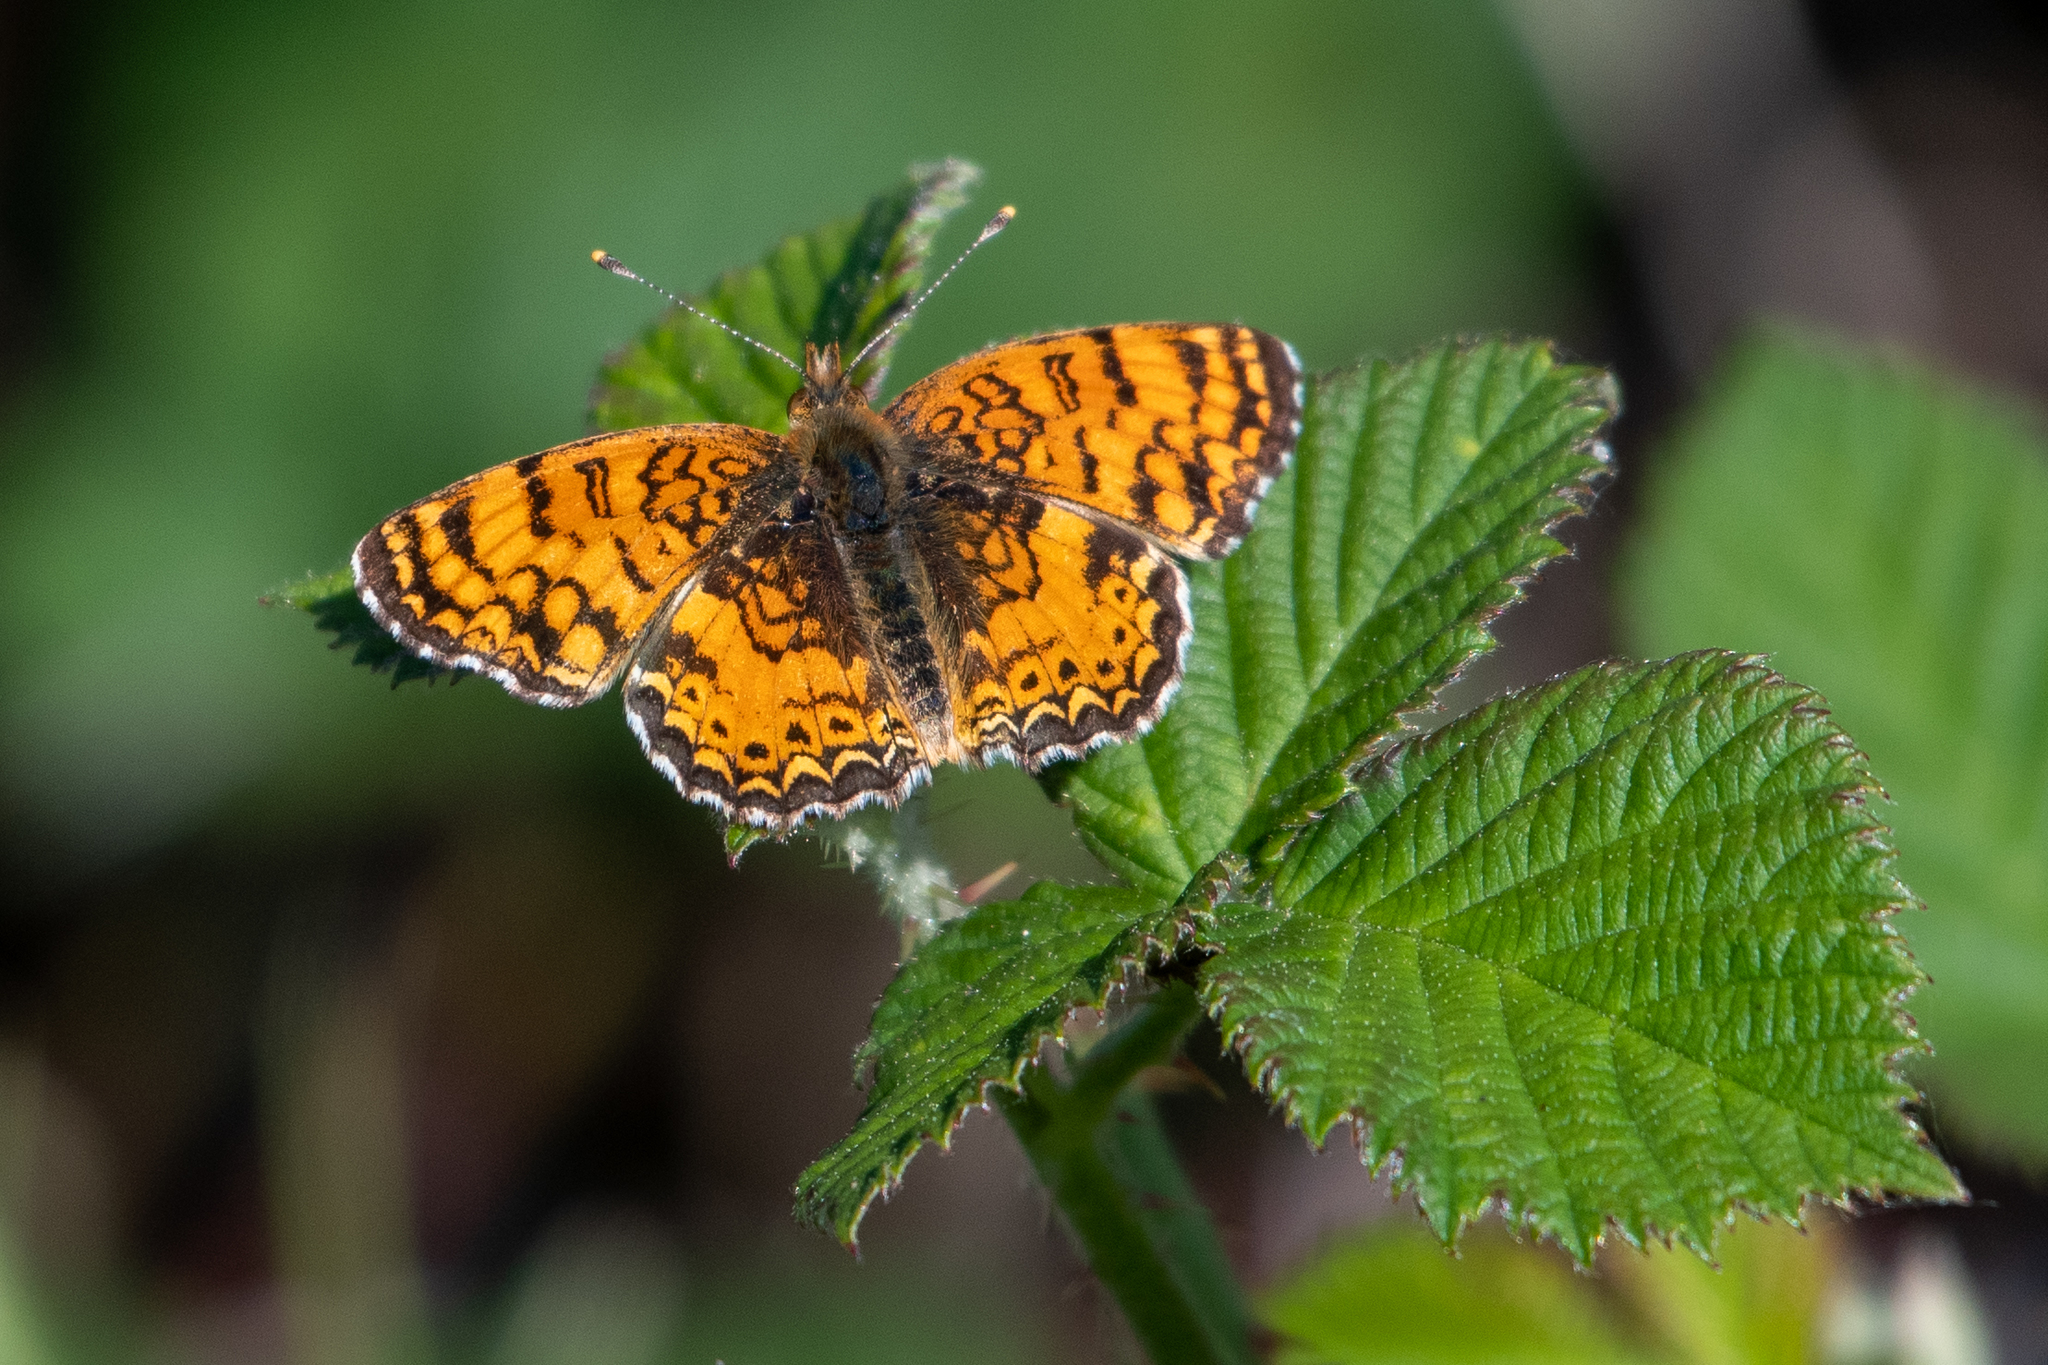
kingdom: Animalia
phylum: Arthropoda
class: Insecta
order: Lepidoptera
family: Nymphalidae
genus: Eresia
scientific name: Eresia aveyrona
